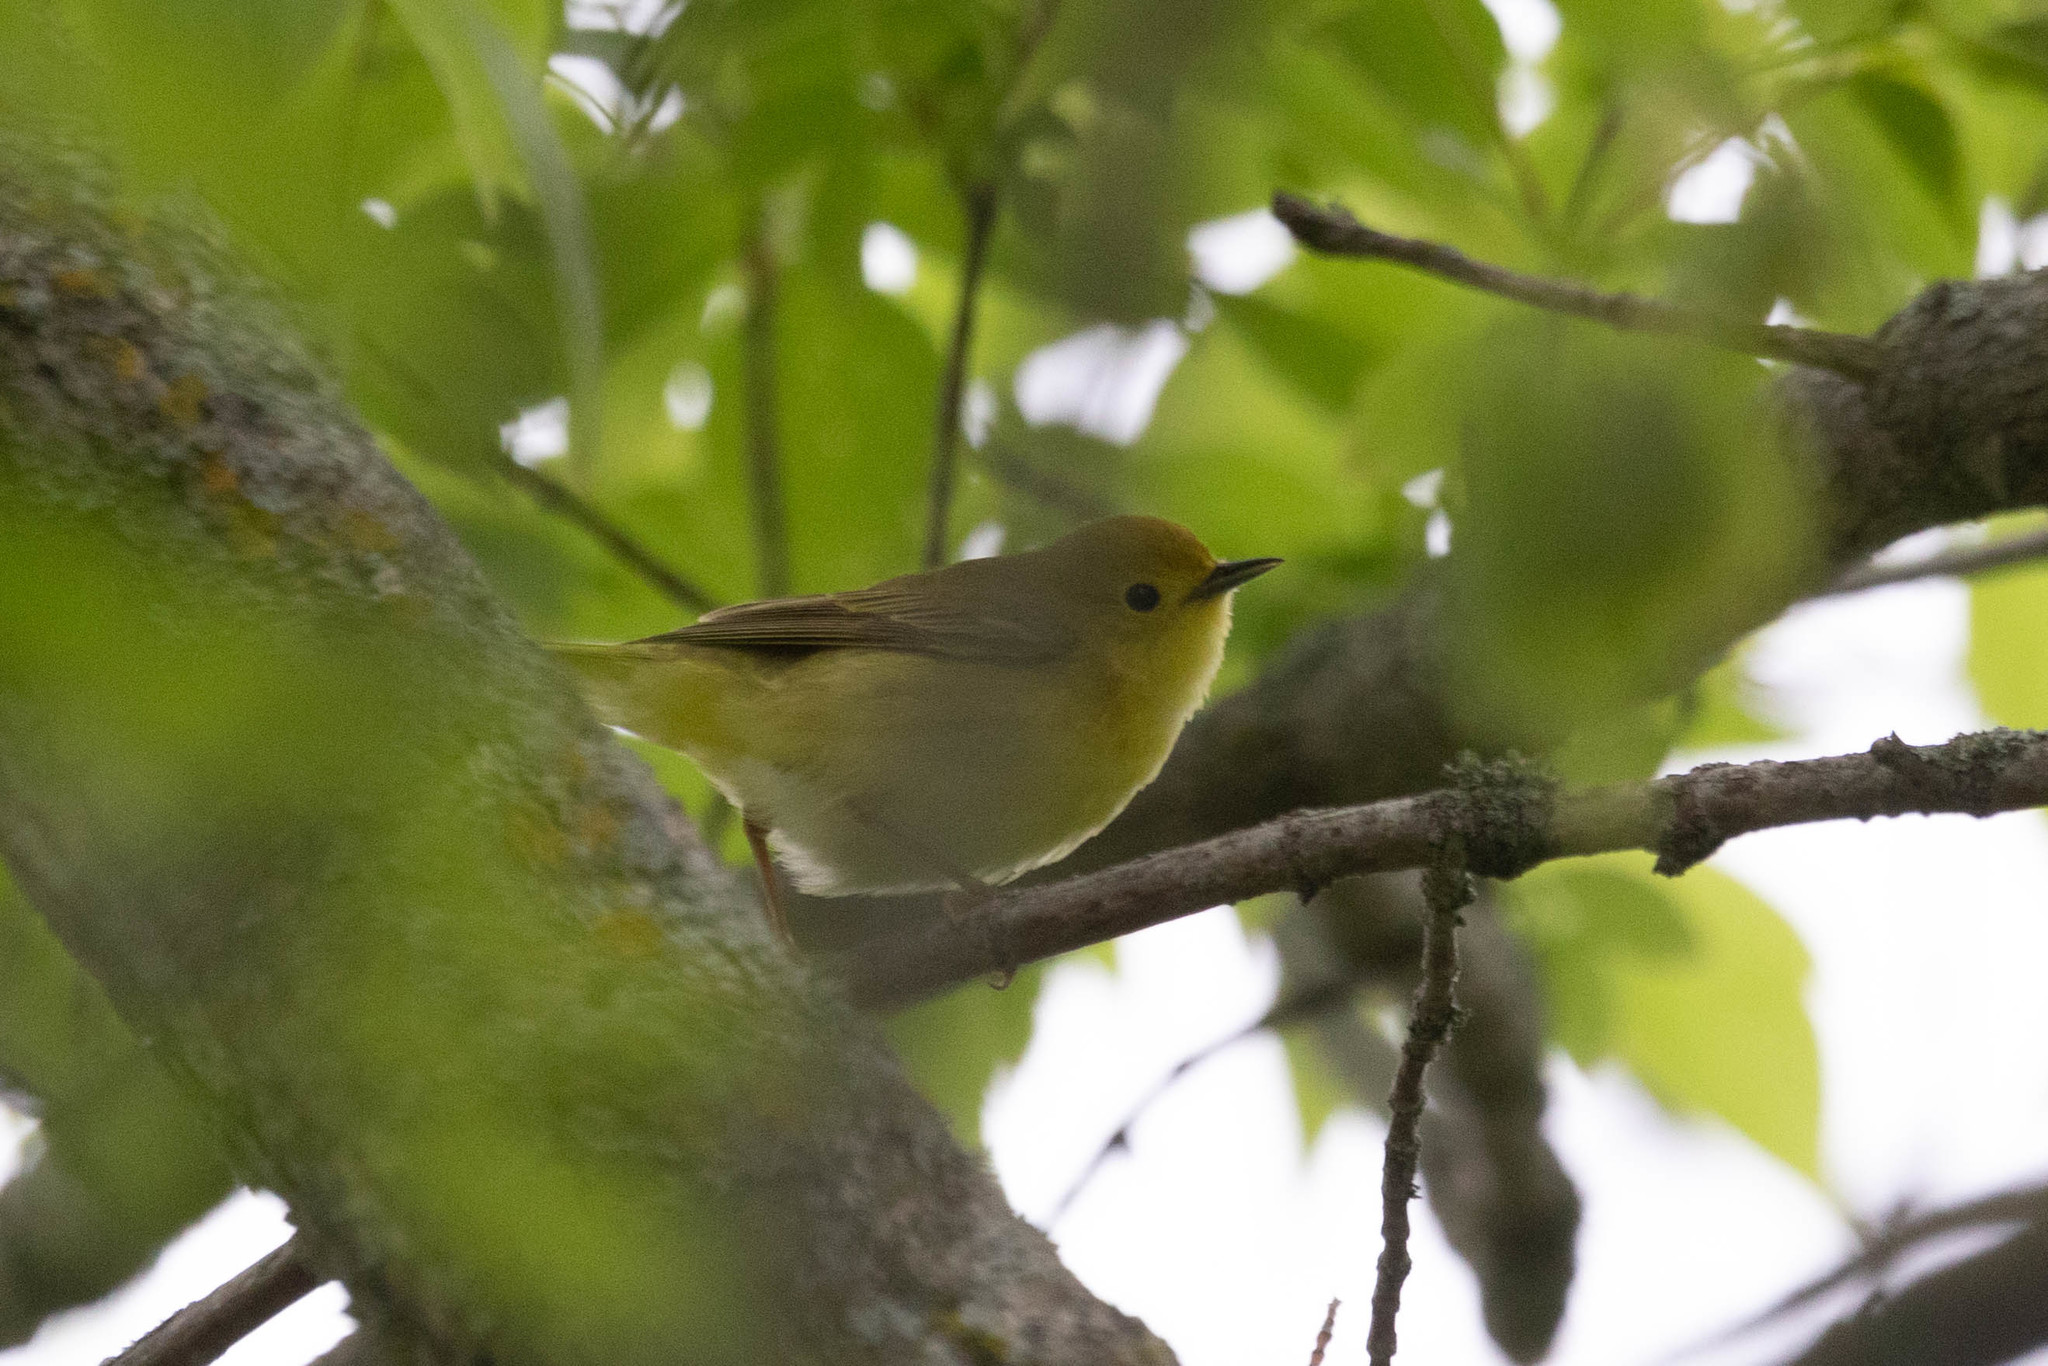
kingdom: Animalia
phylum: Chordata
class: Aves
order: Passeriformes
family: Parulidae
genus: Setophaga
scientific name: Setophaga petechia
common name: Yellow warbler
